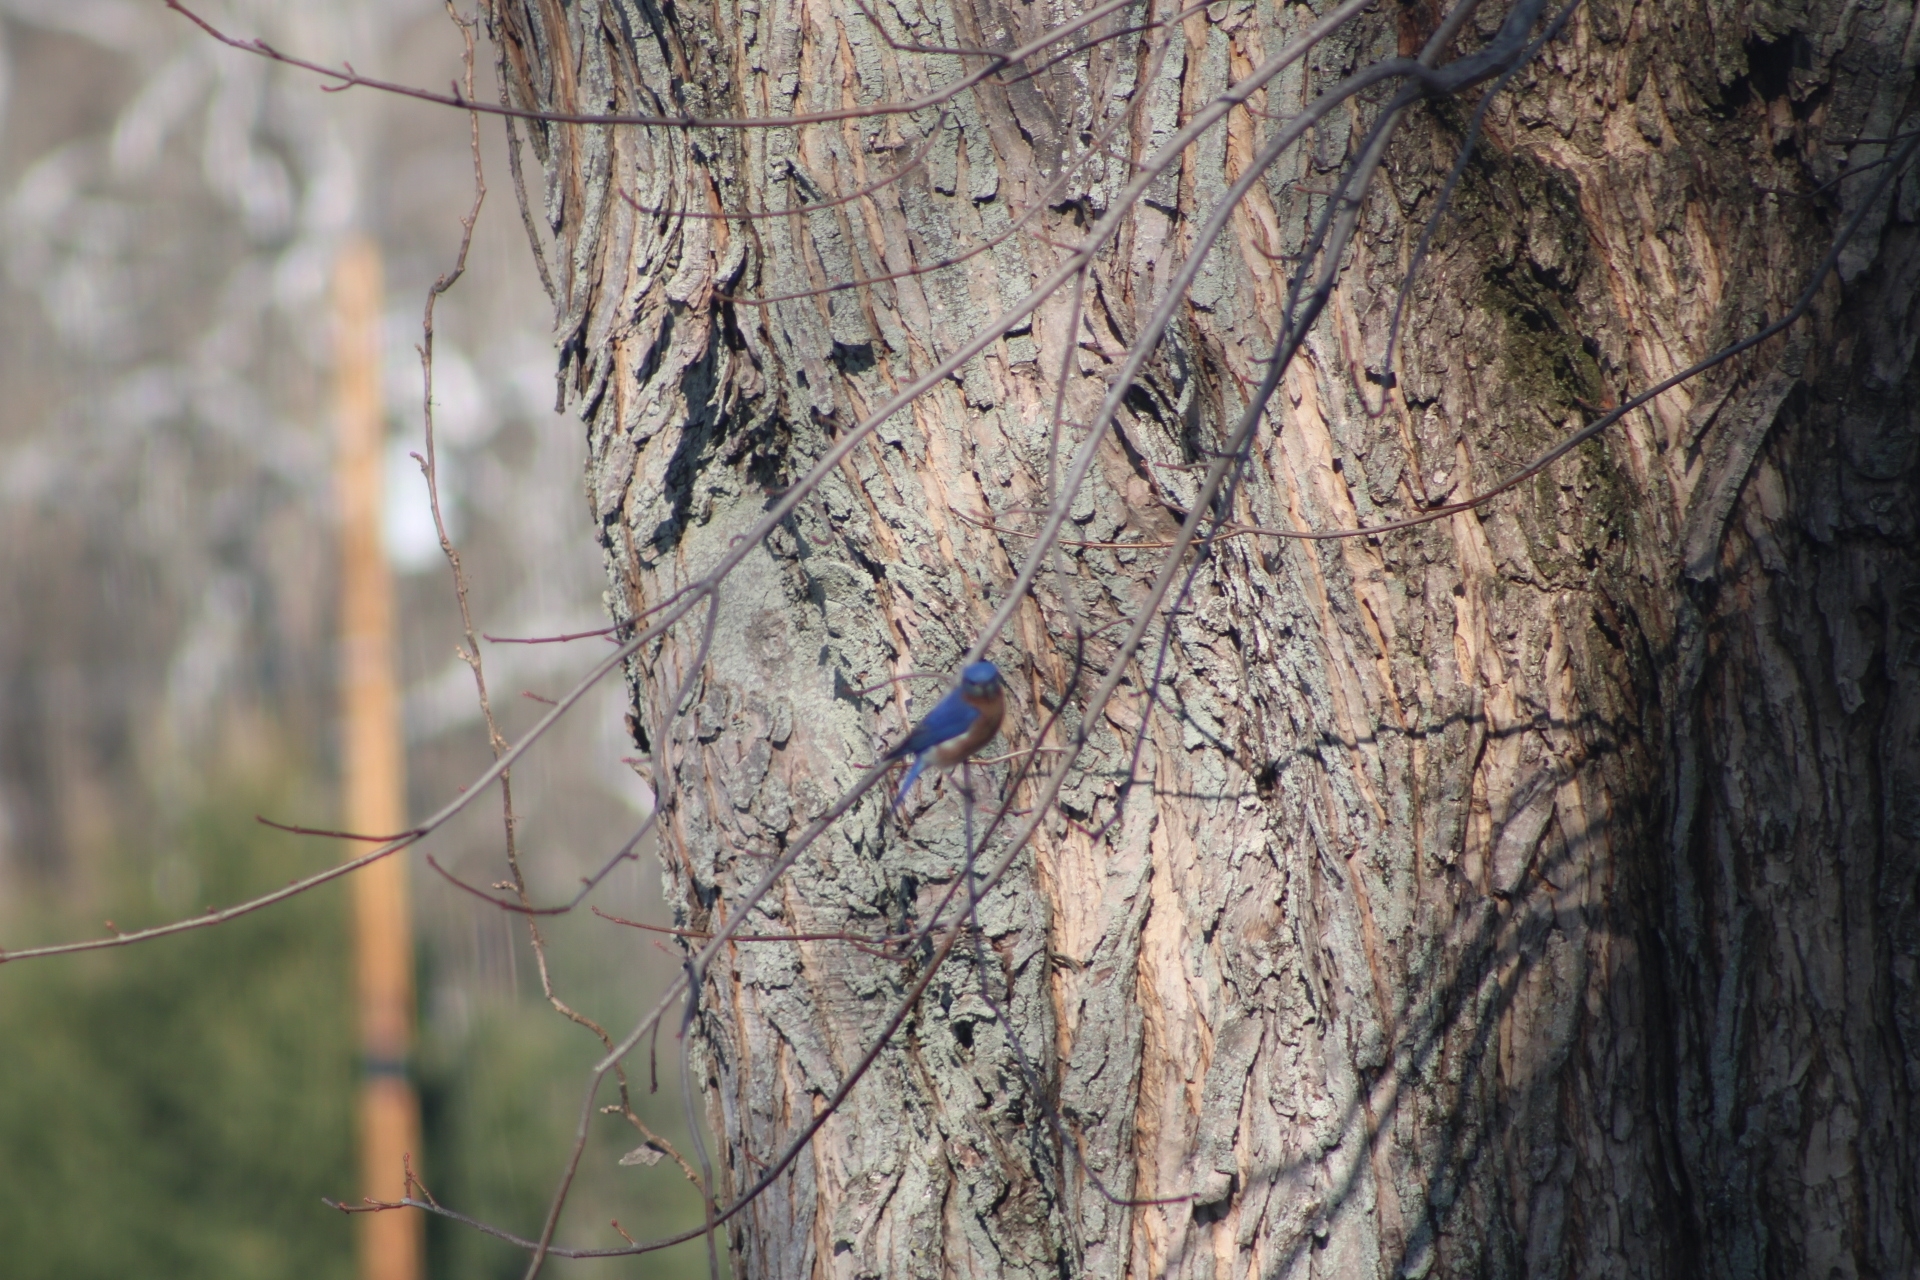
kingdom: Animalia
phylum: Chordata
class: Aves
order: Passeriformes
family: Turdidae
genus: Sialia
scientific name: Sialia sialis
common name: Eastern bluebird
